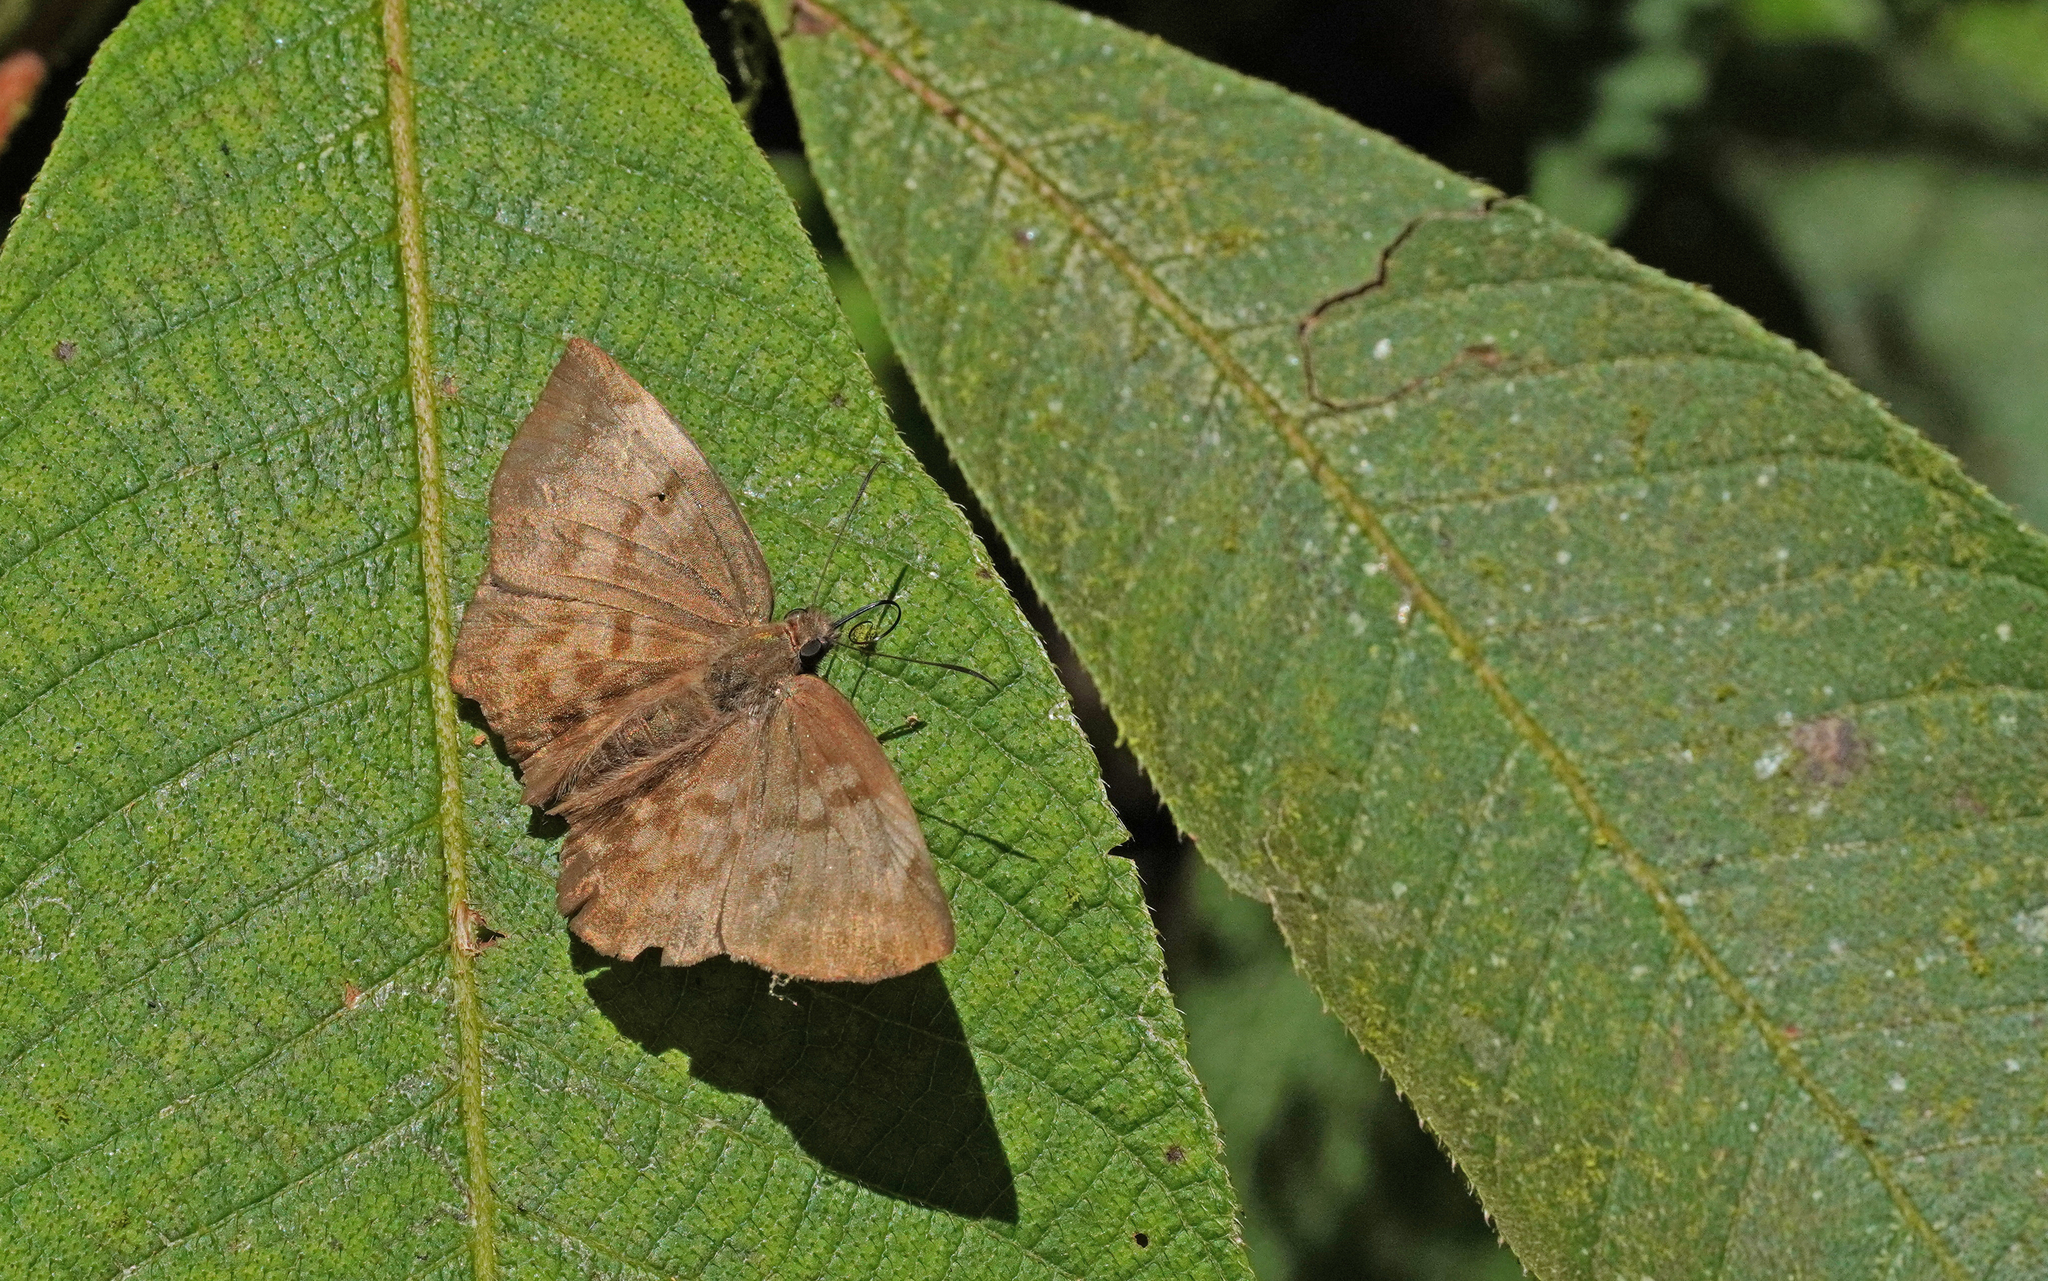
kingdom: Animalia
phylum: Arthropoda
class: Insecta
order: Lepidoptera
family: Hesperiidae
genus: Achlyodes
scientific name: Achlyodes pallida
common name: Pale sicklewing
